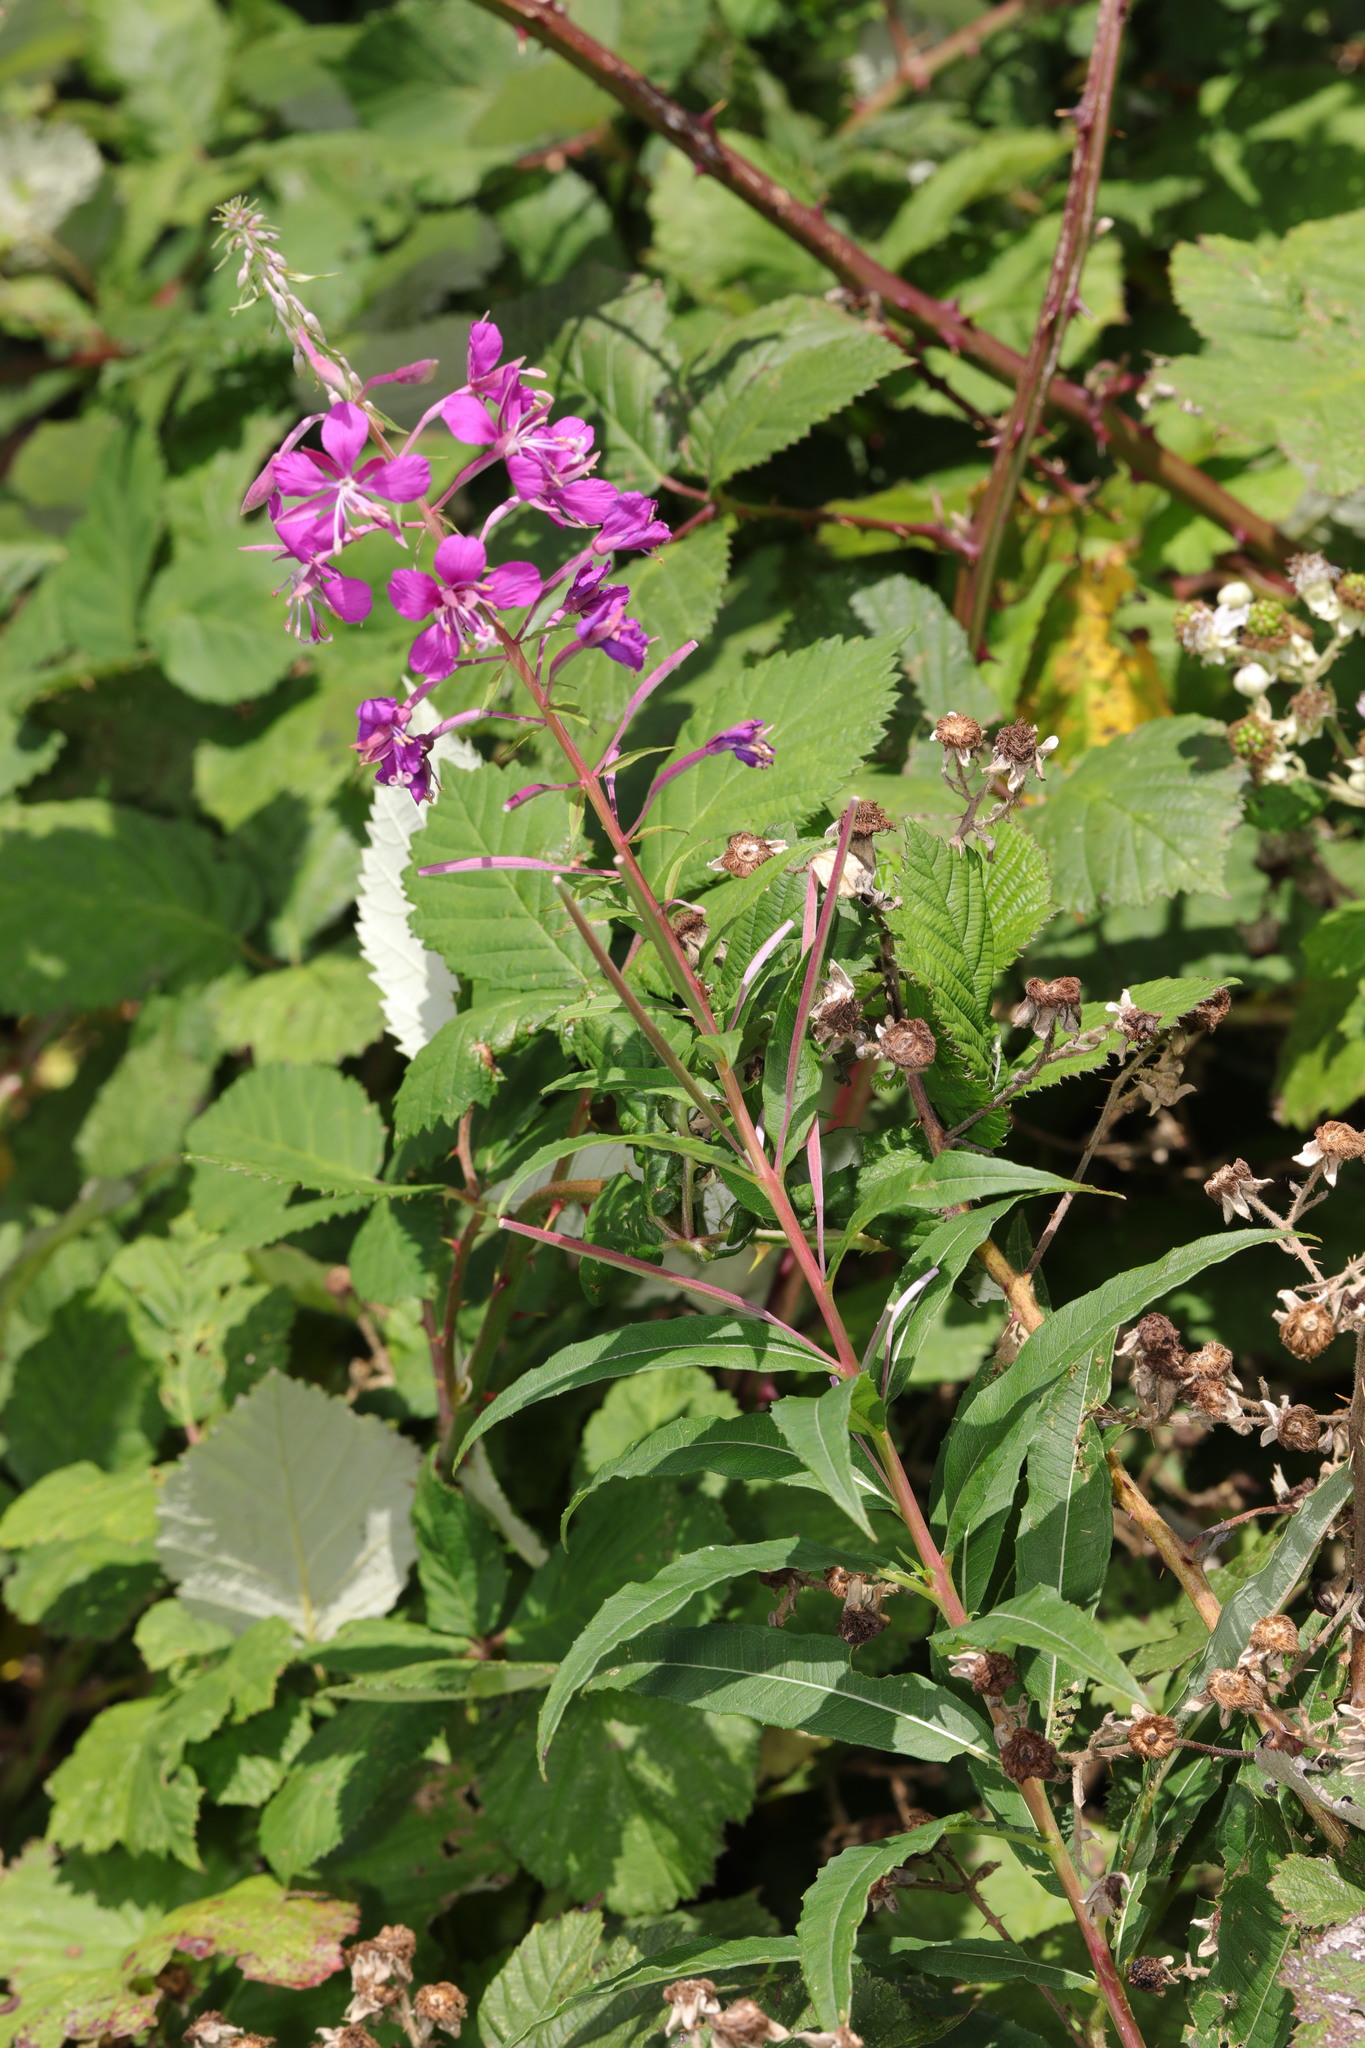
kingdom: Plantae
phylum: Tracheophyta
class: Magnoliopsida
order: Myrtales
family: Onagraceae
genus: Chamaenerion
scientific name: Chamaenerion angustifolium
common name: Fireweed
